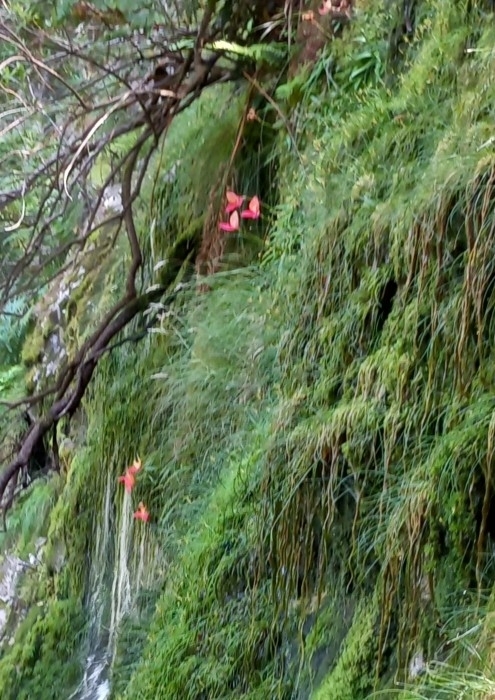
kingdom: Plantae
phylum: Tracheophyta
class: Liliopsida
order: Asparagales
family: Orchidaceae
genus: Disa
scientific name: Disa uniflora
